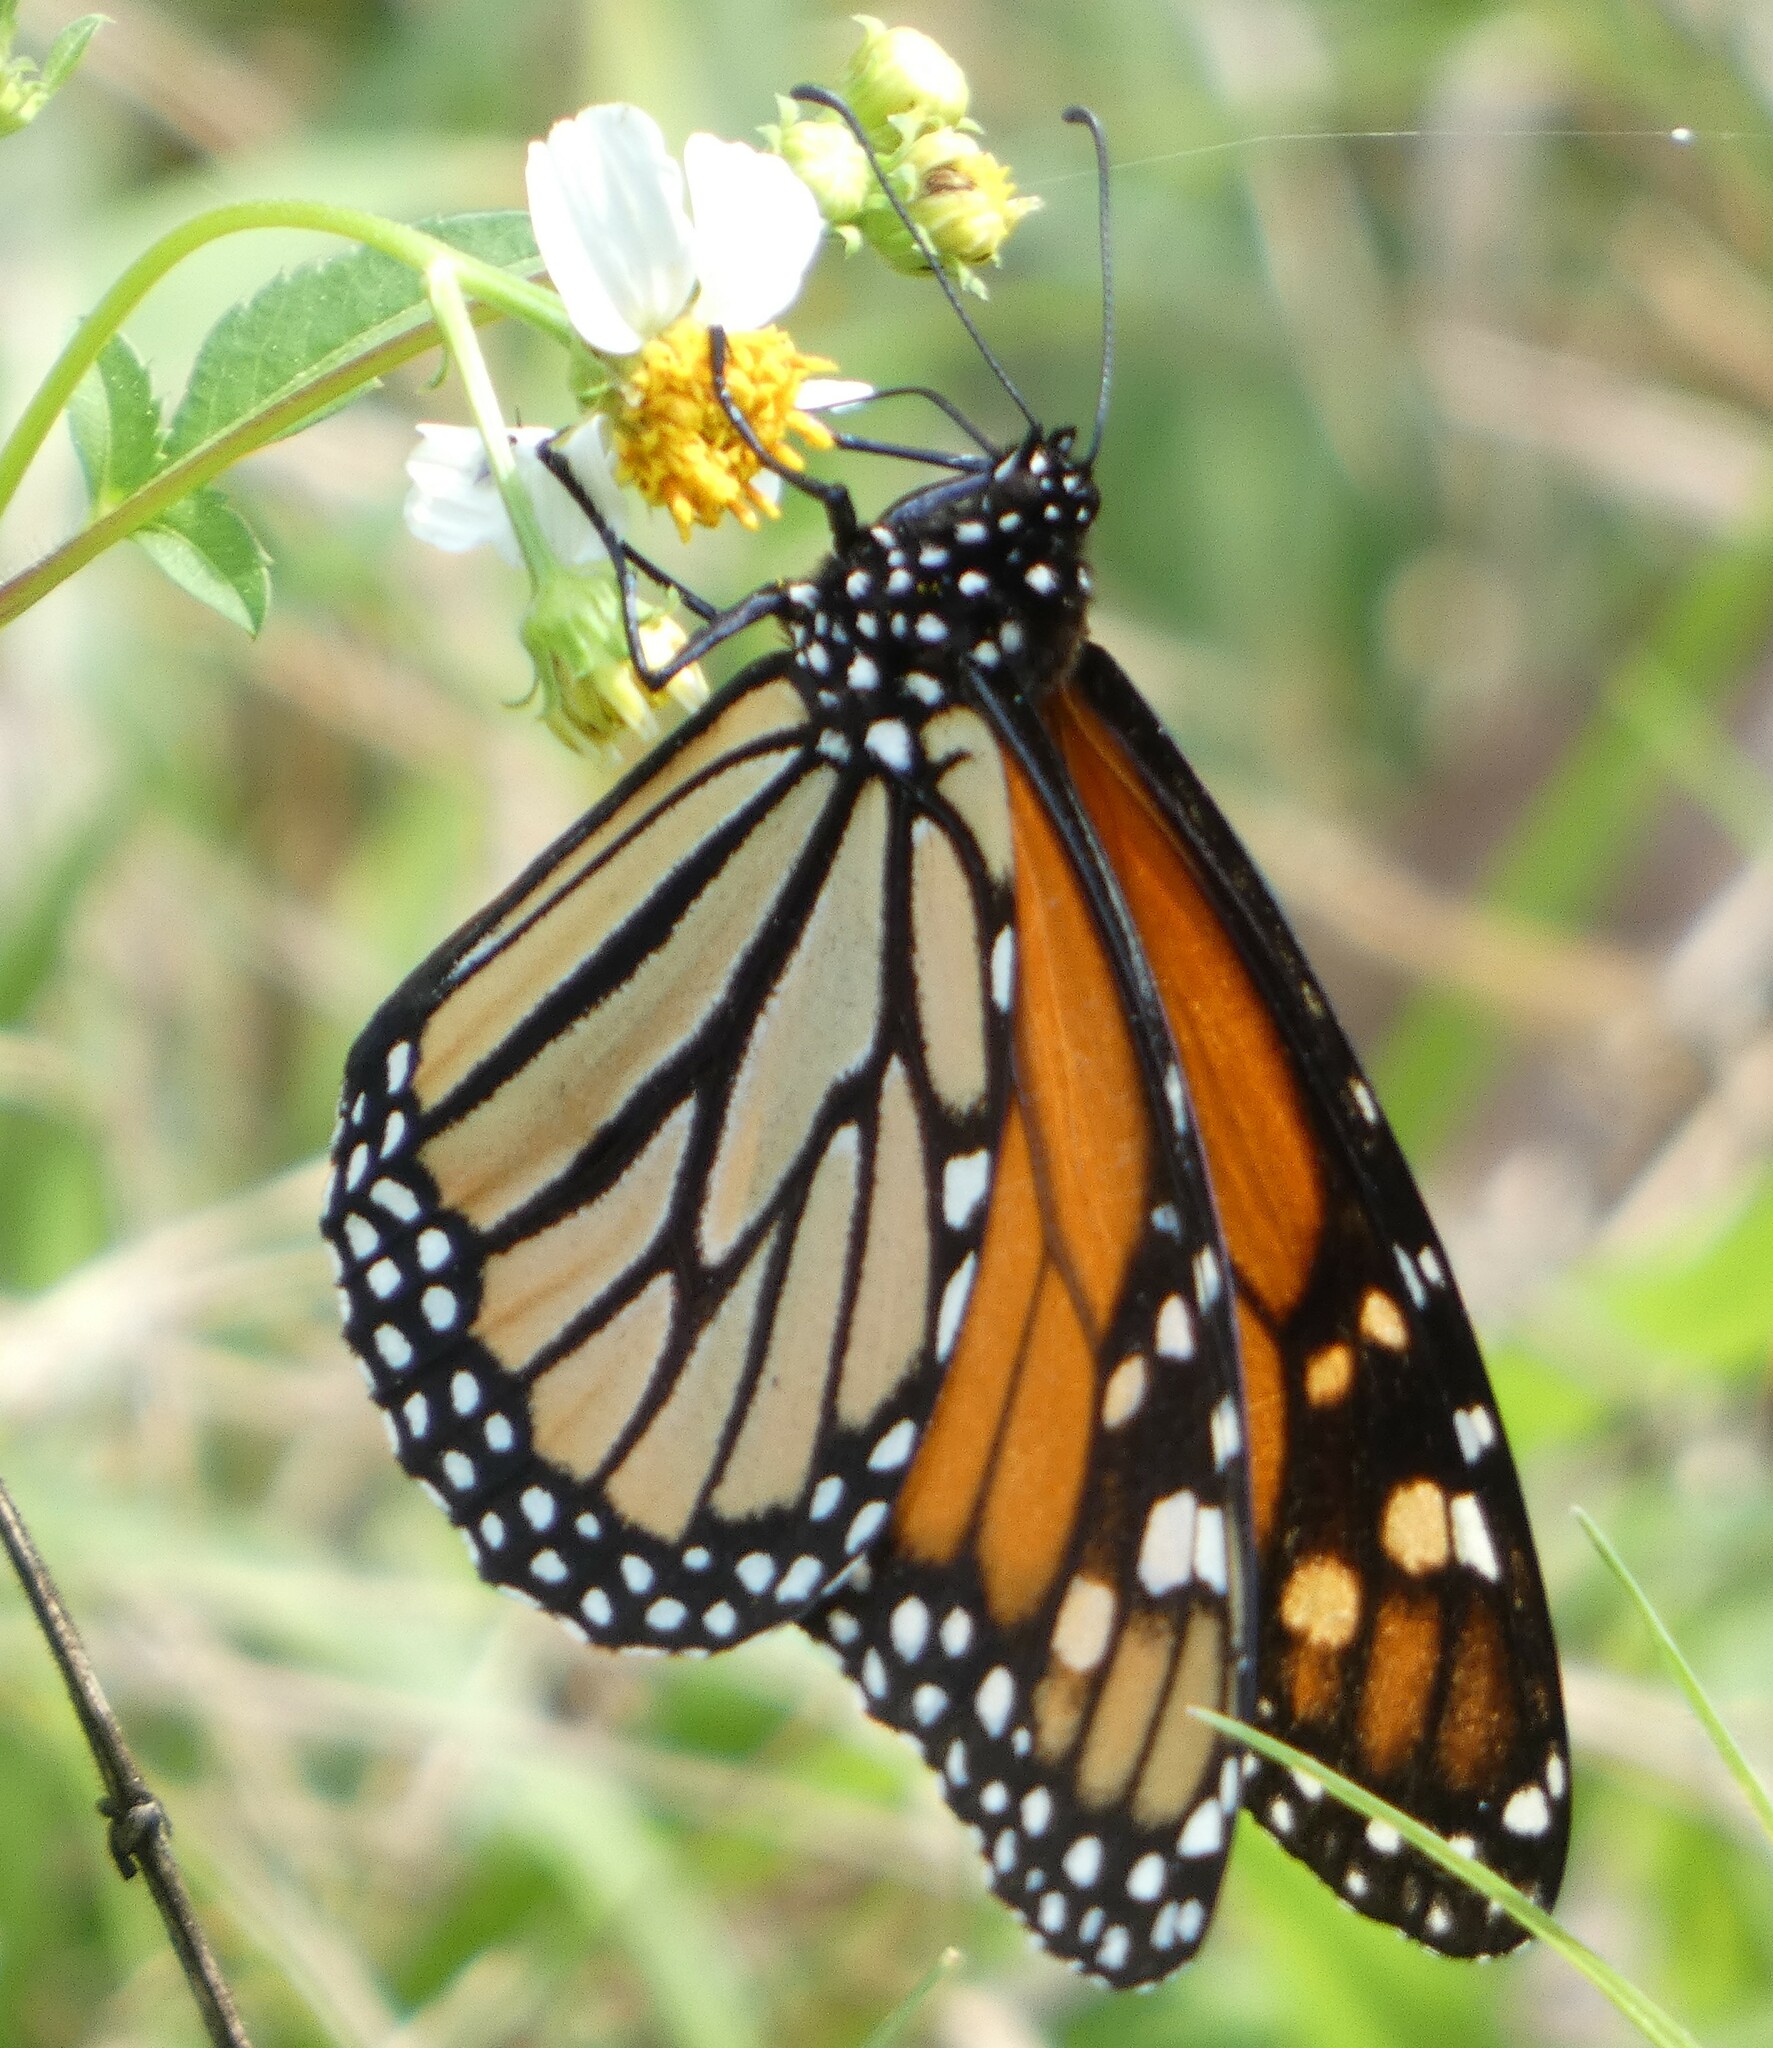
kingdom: Animalia
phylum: Arthropoda
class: Insecta
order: Lepidoptera
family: Nymphalidae
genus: Danaus
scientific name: Danaus plexippus
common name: Monarch
